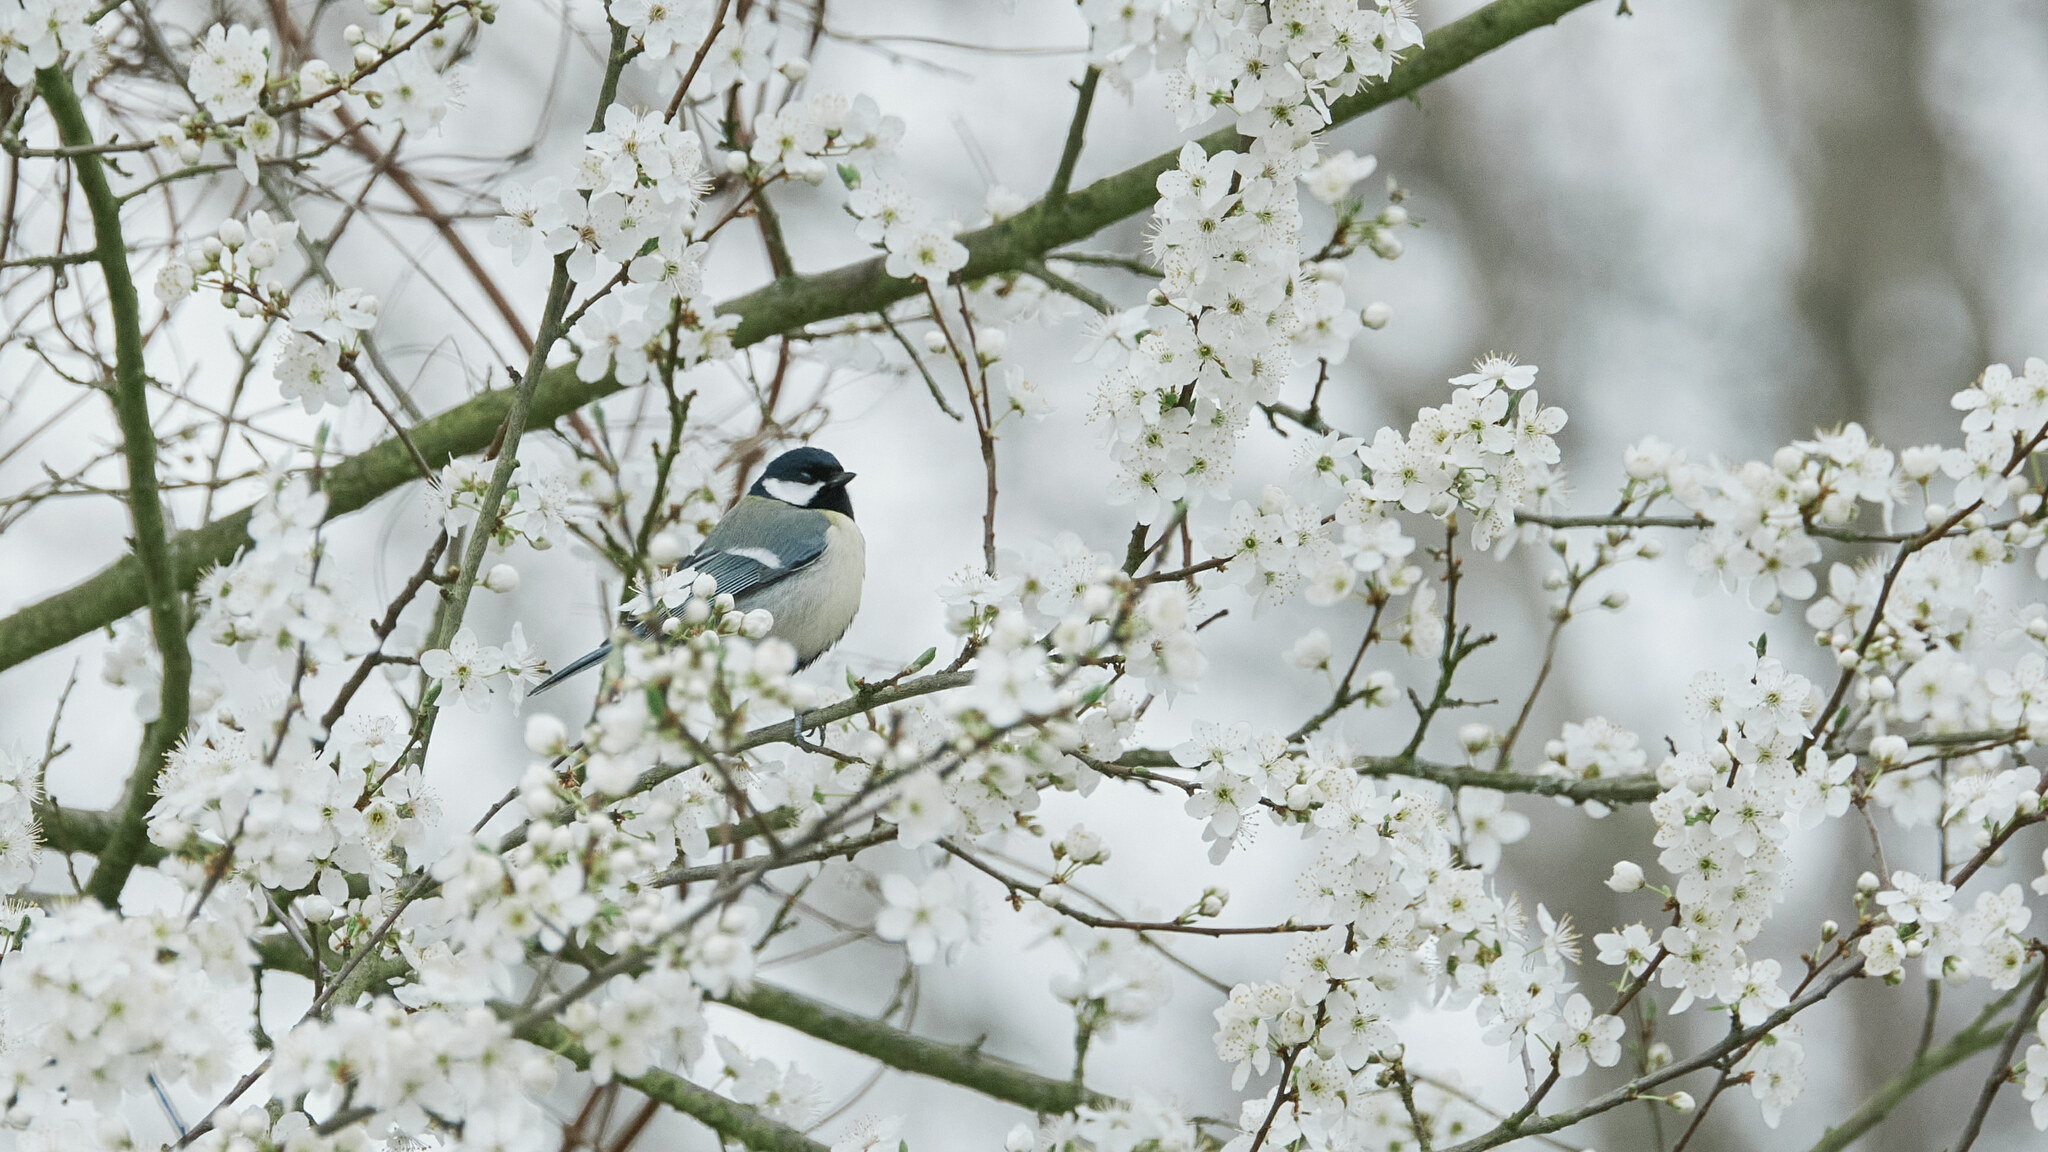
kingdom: Animalia
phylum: Chordata
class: Aves
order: Passeriformes
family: Paridae
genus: Parus
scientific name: Parus major
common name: Great tit
